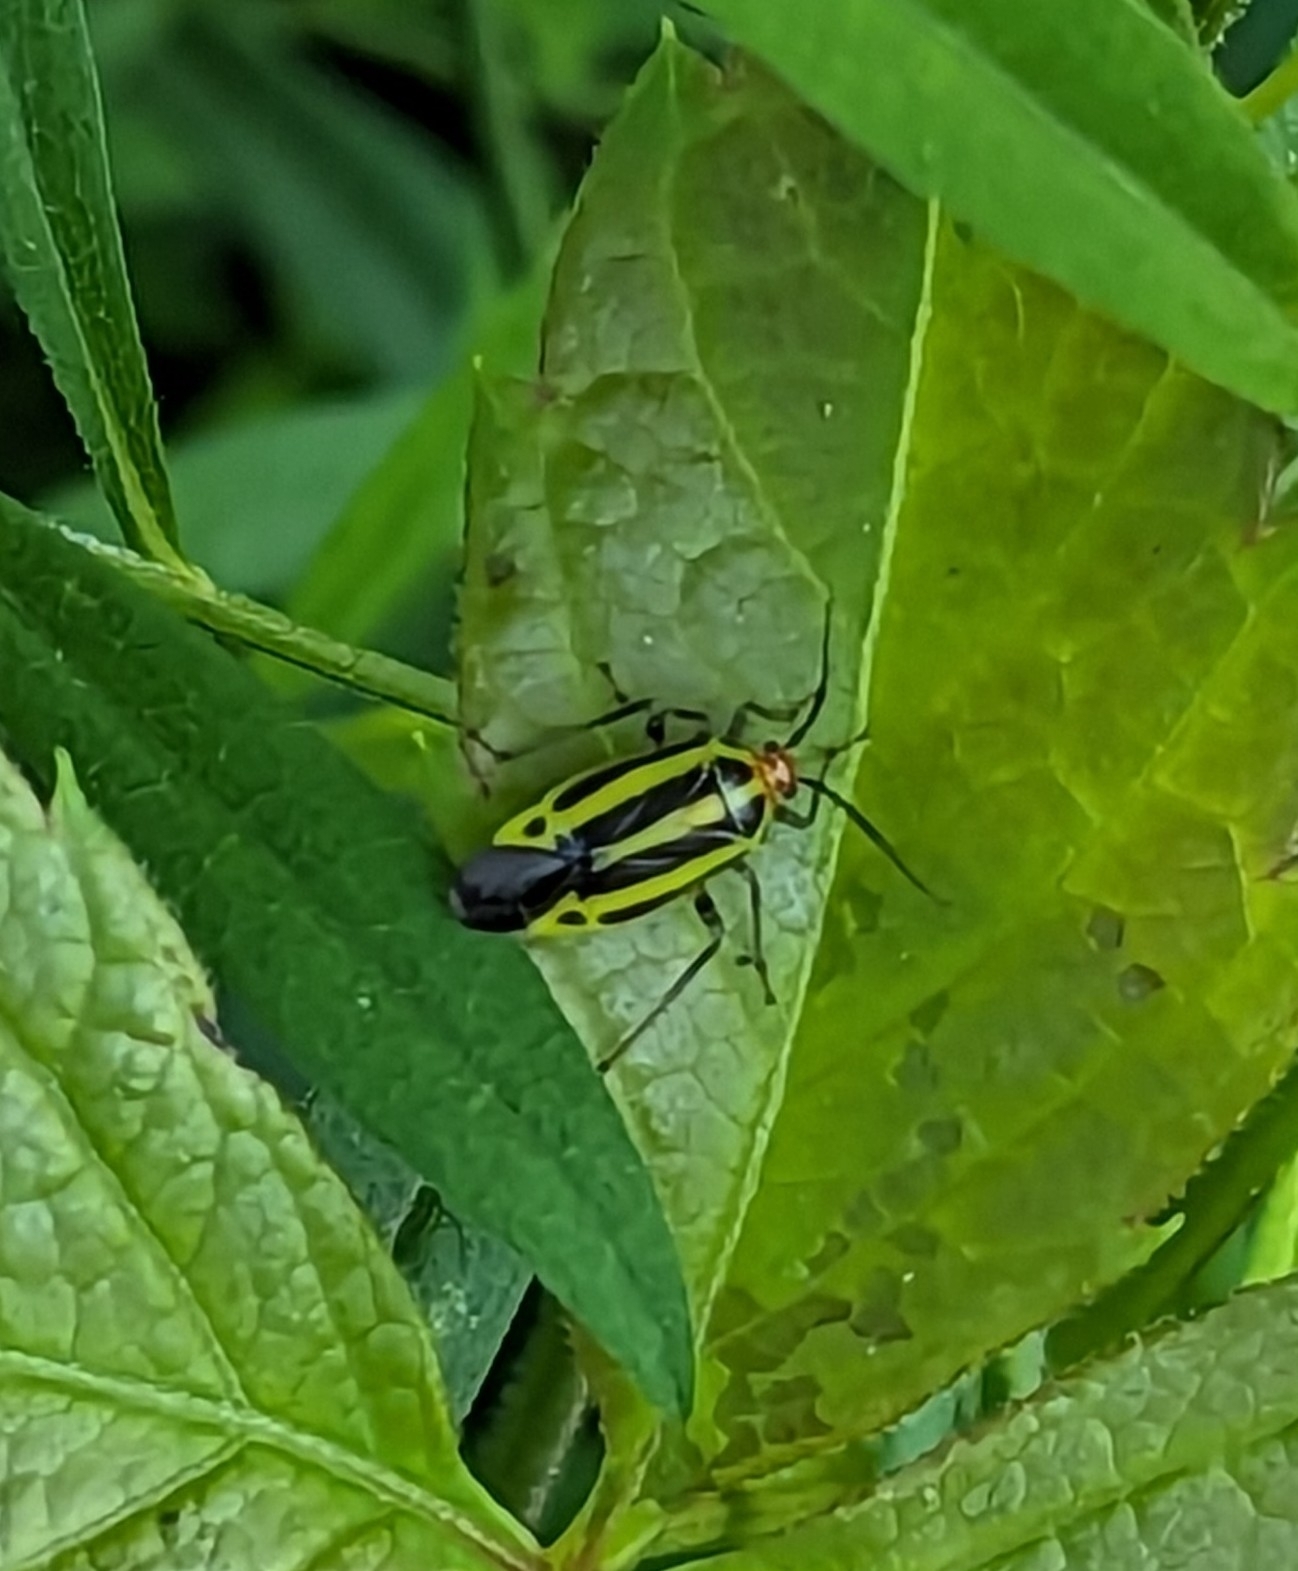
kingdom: Animalia
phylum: Arthropoda
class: Insecta
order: Hemiptera
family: Miridae
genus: Poecilocapsus
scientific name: Poecilocapsus lineatus
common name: Four-lined plant bug
